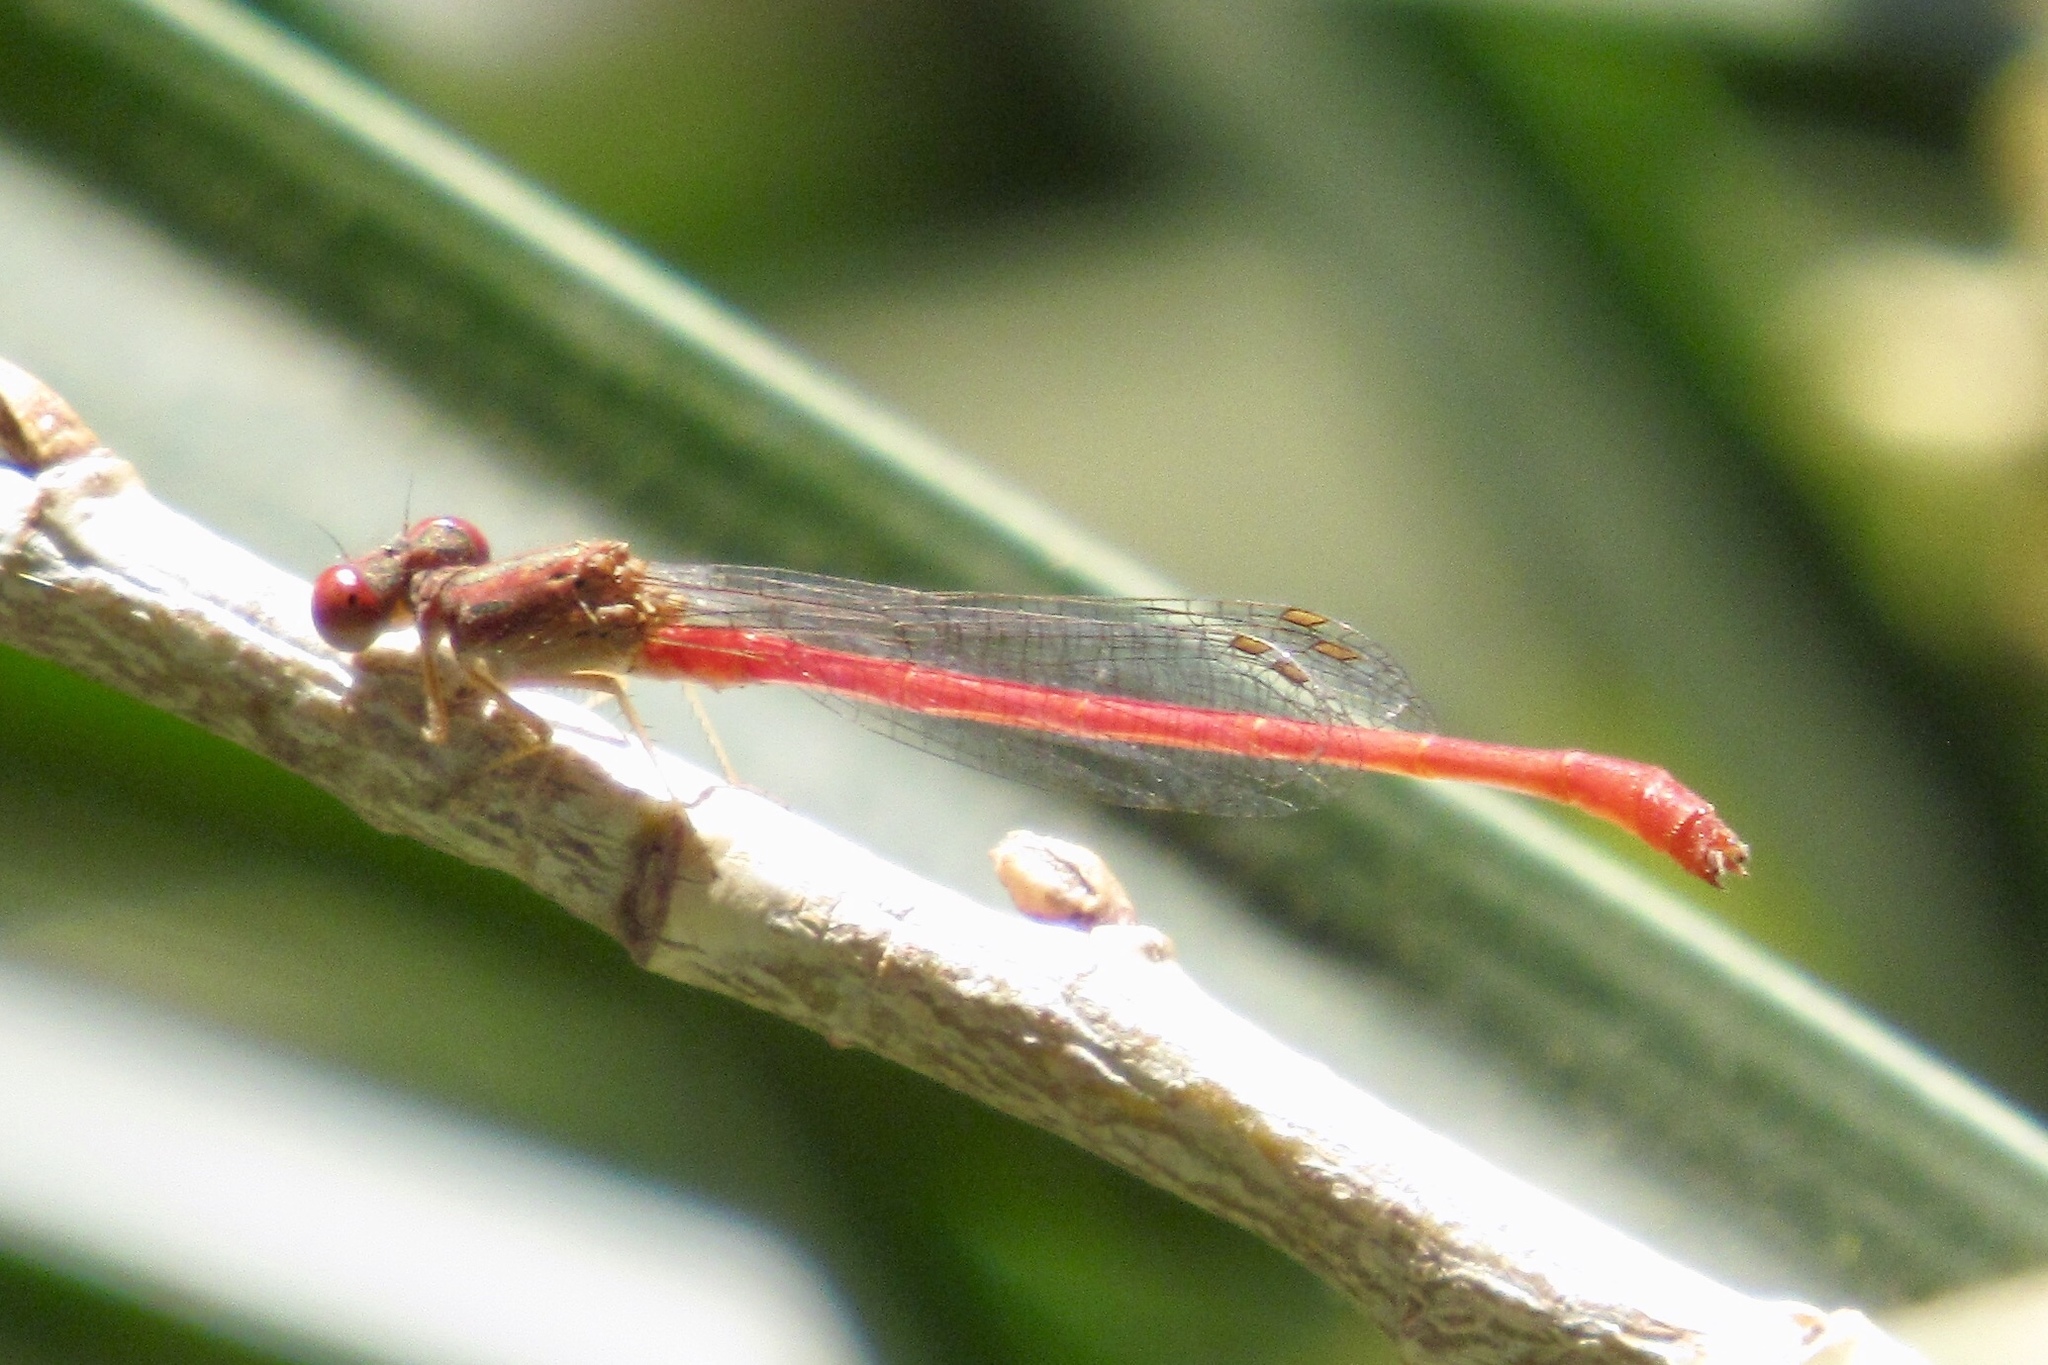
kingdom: Animalia
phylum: Arthropoda
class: Insecta
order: Odonata
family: Coenagrionidae
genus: Telebasis
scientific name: Telebasis salva
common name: Desert firetail
